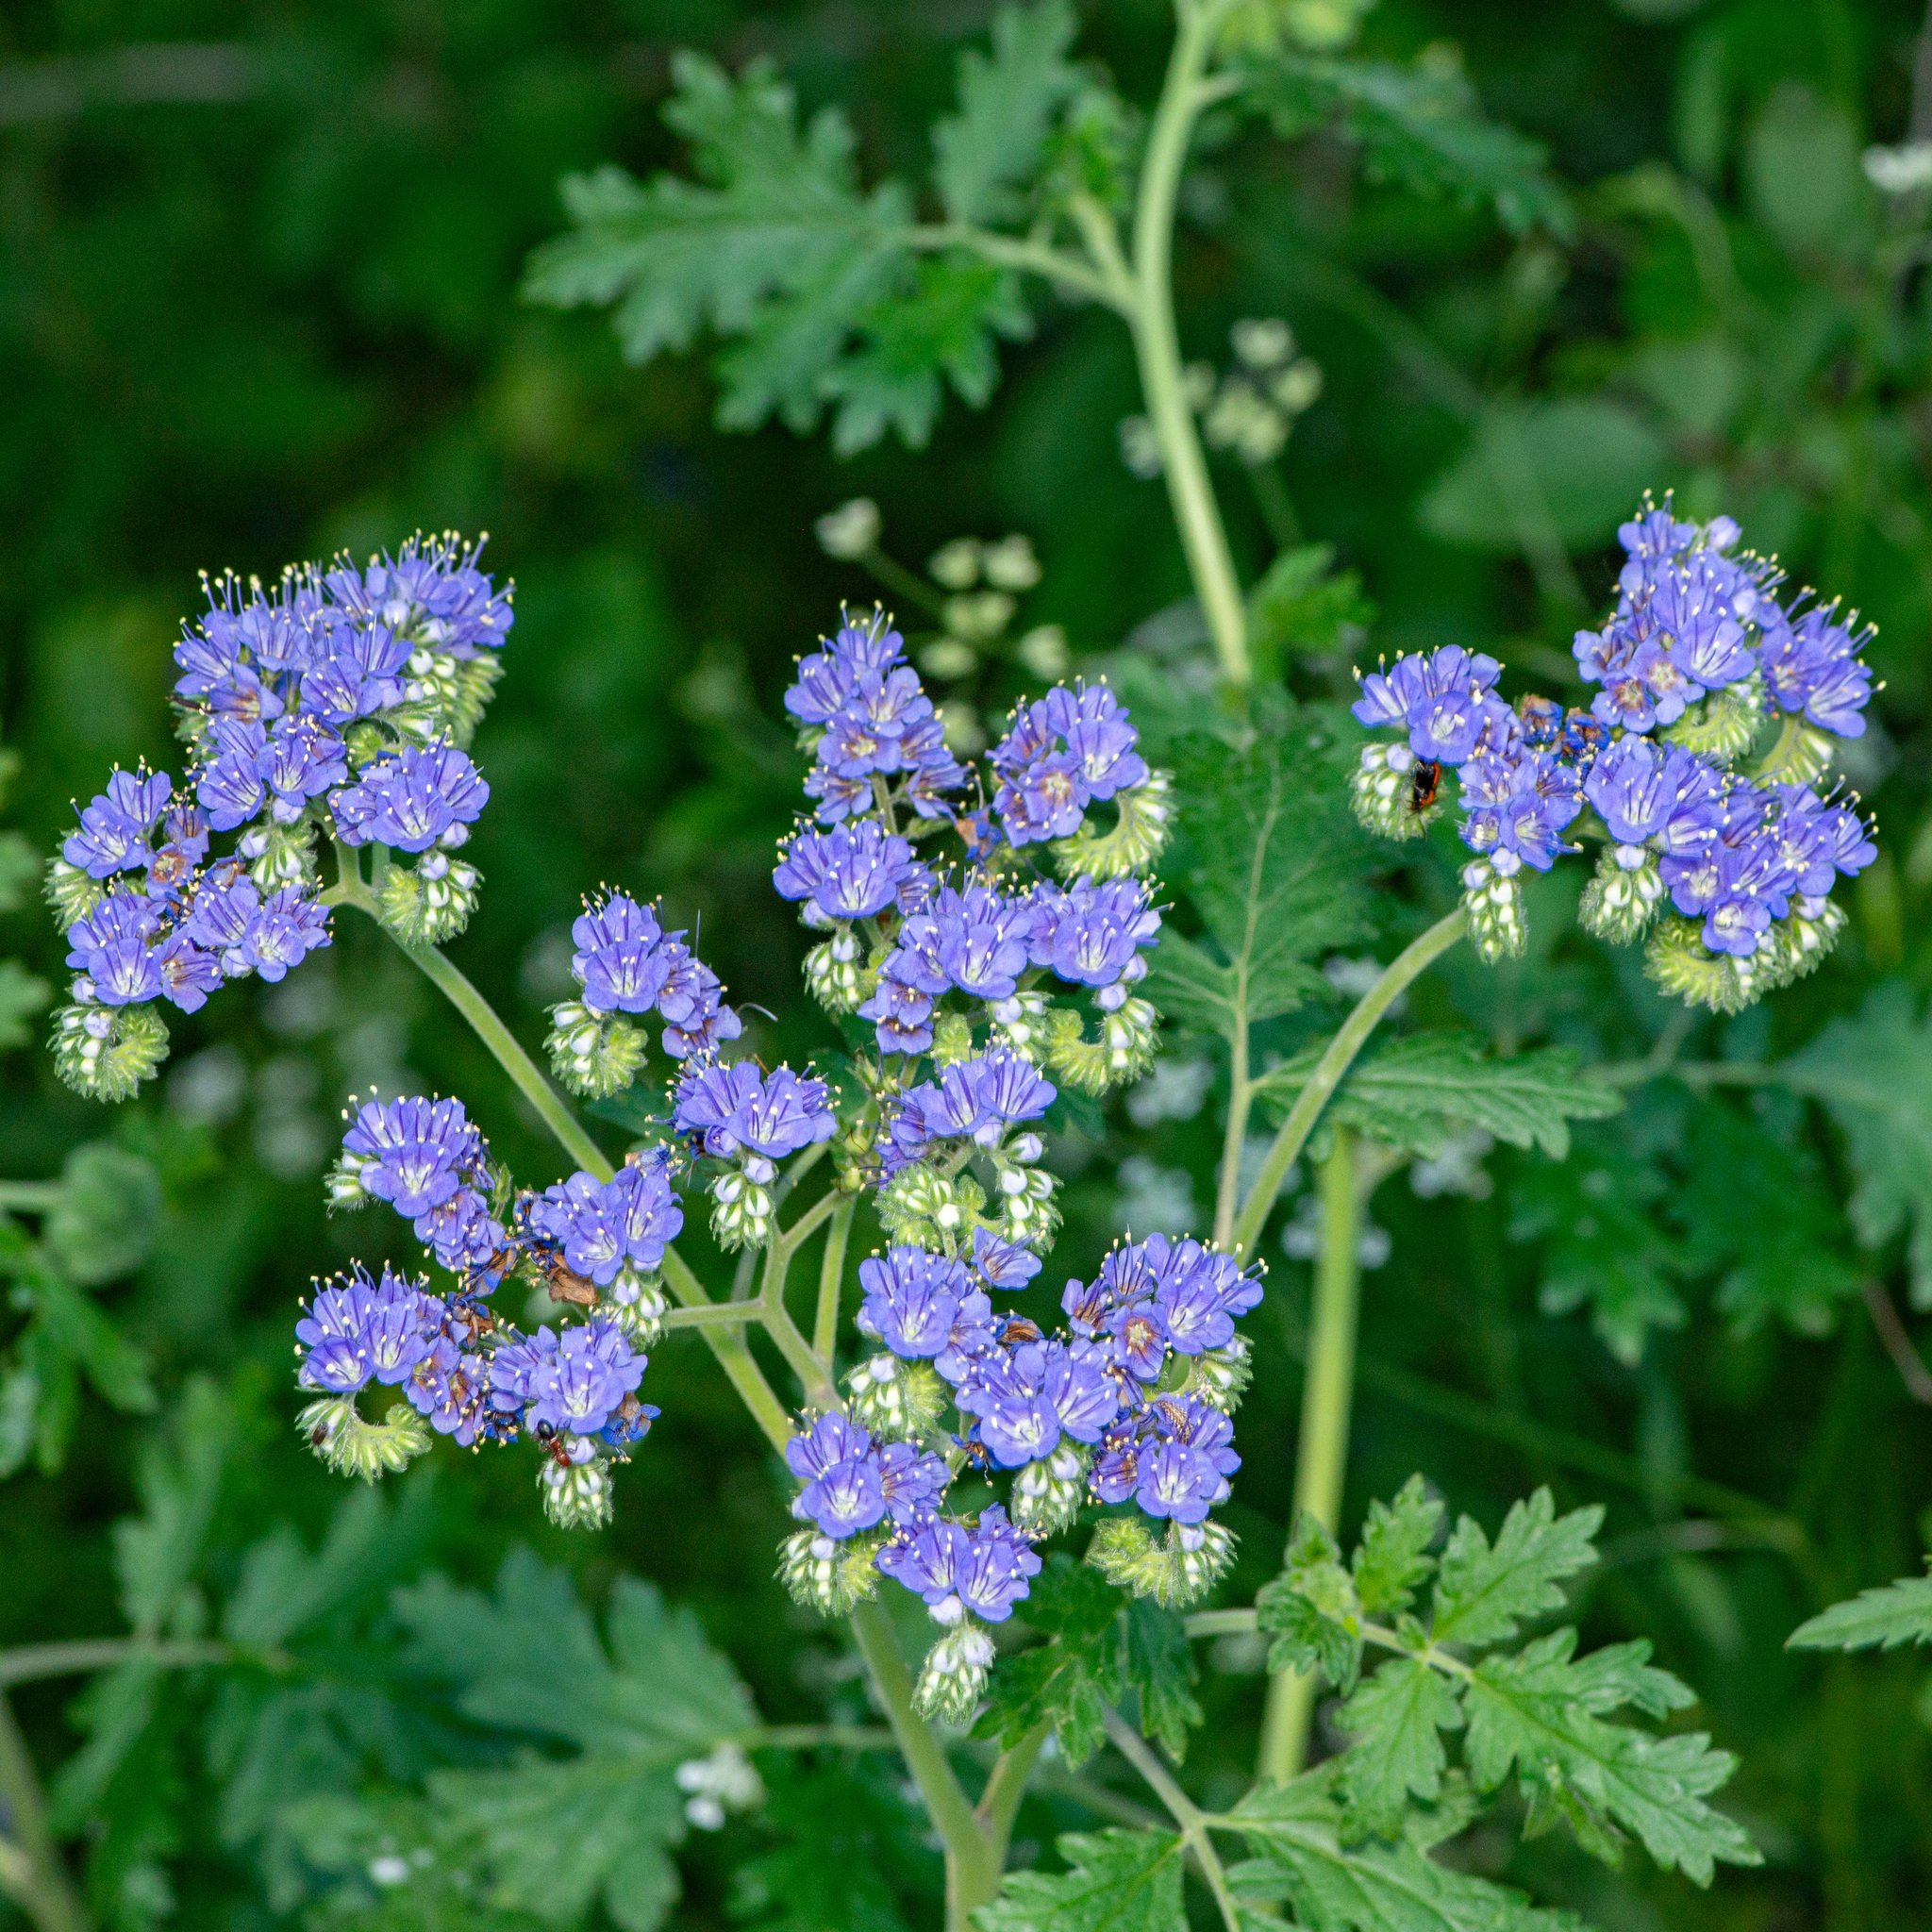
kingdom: Plantae
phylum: Tracheophyta
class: Magnoliopsida
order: Boraginales
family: Hydrophyllaceae
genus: Phacelia
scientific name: Phacelia congesta
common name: Blue curls
